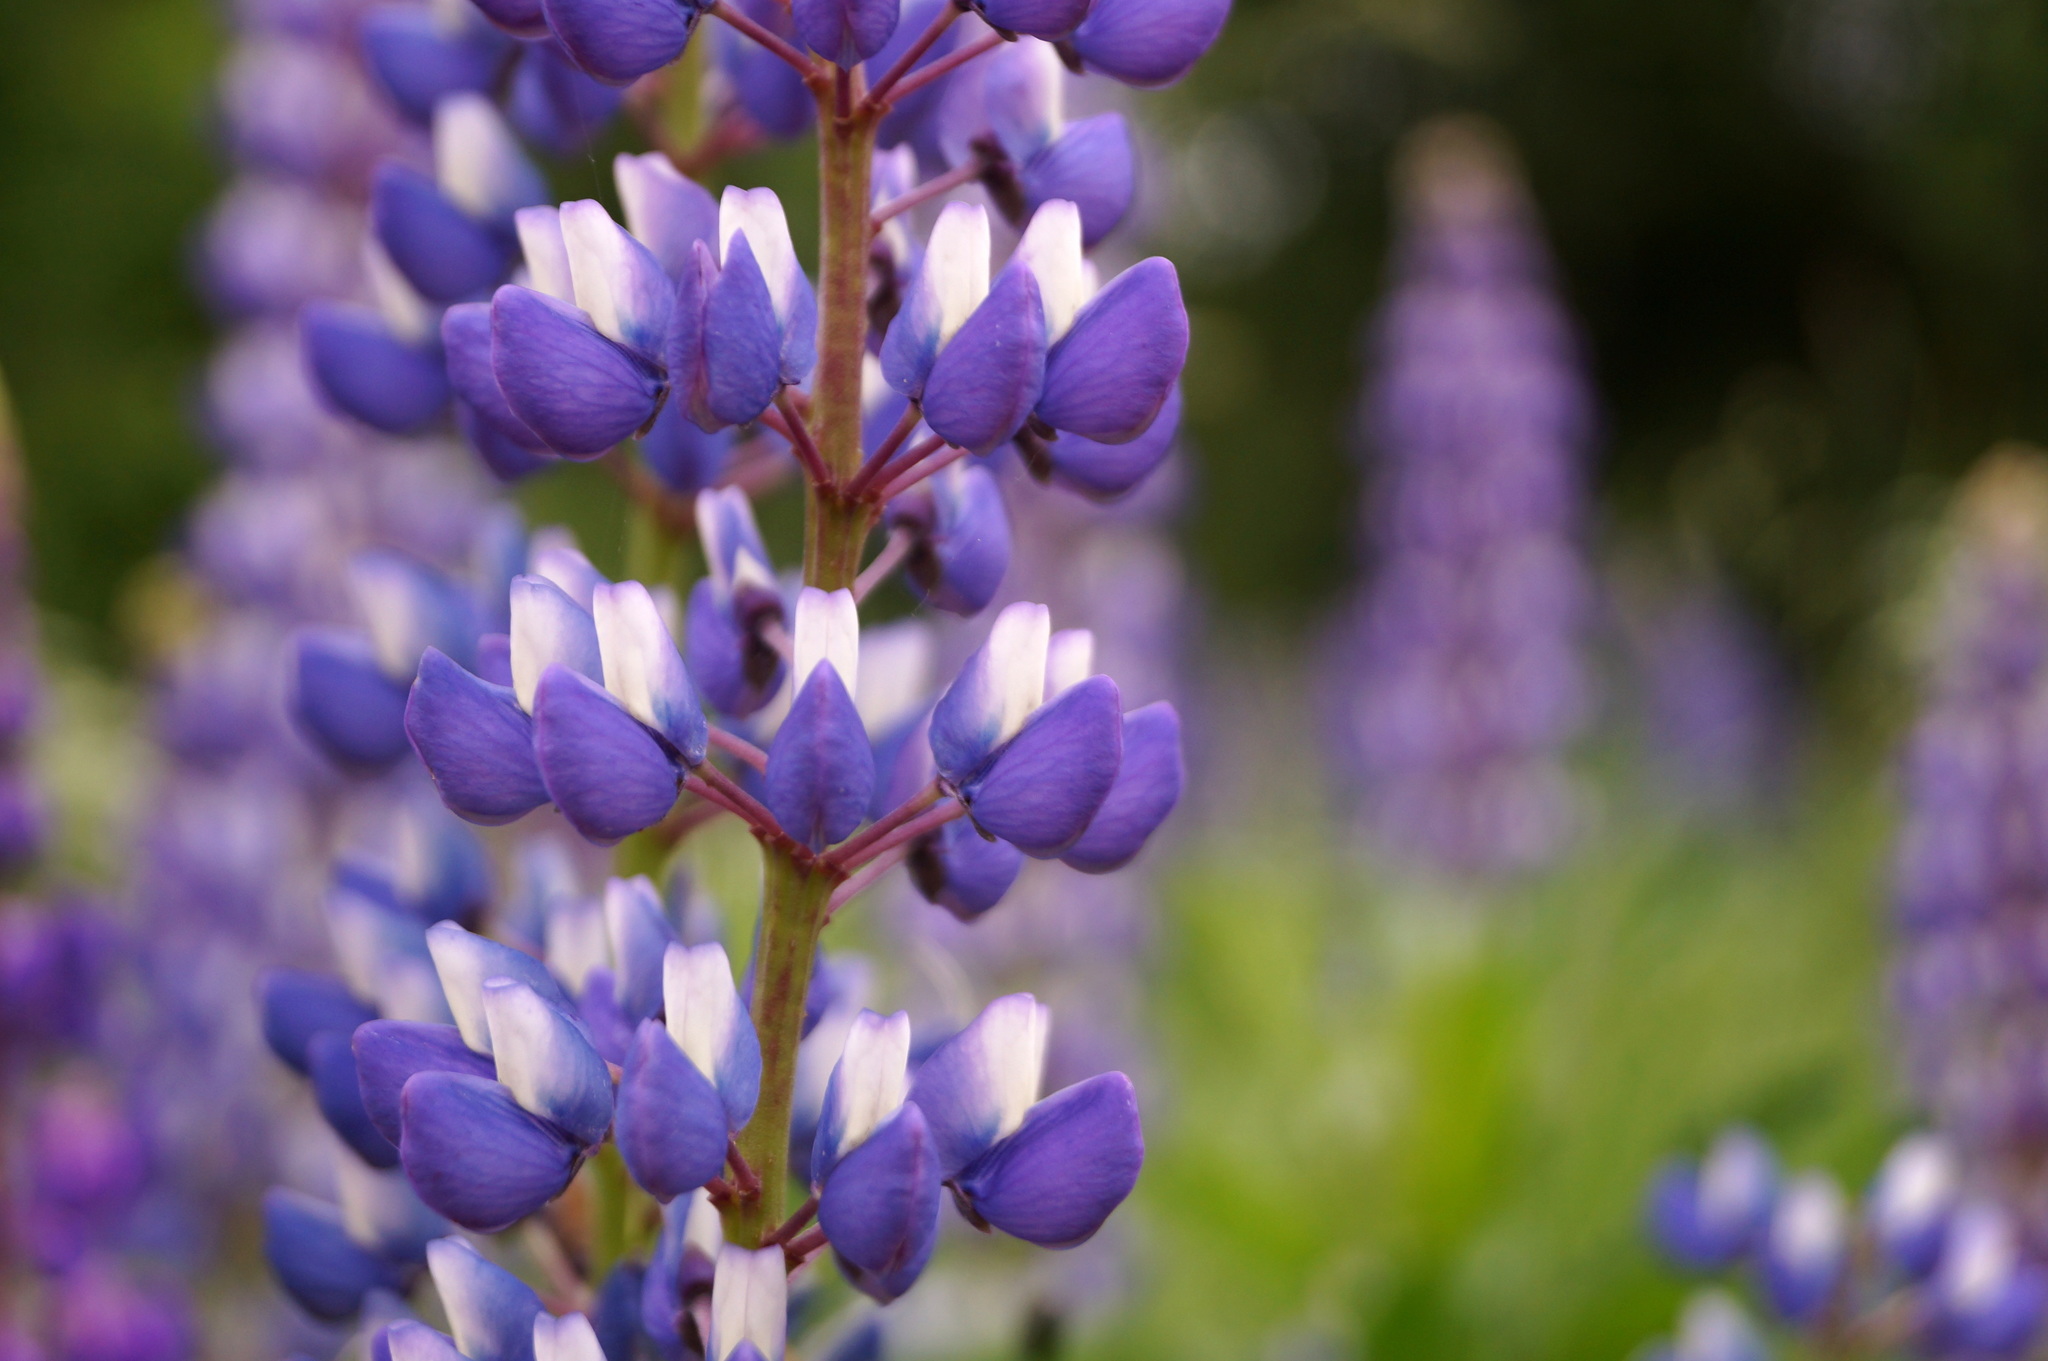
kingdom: Plantae
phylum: Tracheophyta
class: Magnoliopsida
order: Fabales
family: Fabaceae
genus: Lupinus
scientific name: Lupinus polyphyllus
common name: Garden lupin
